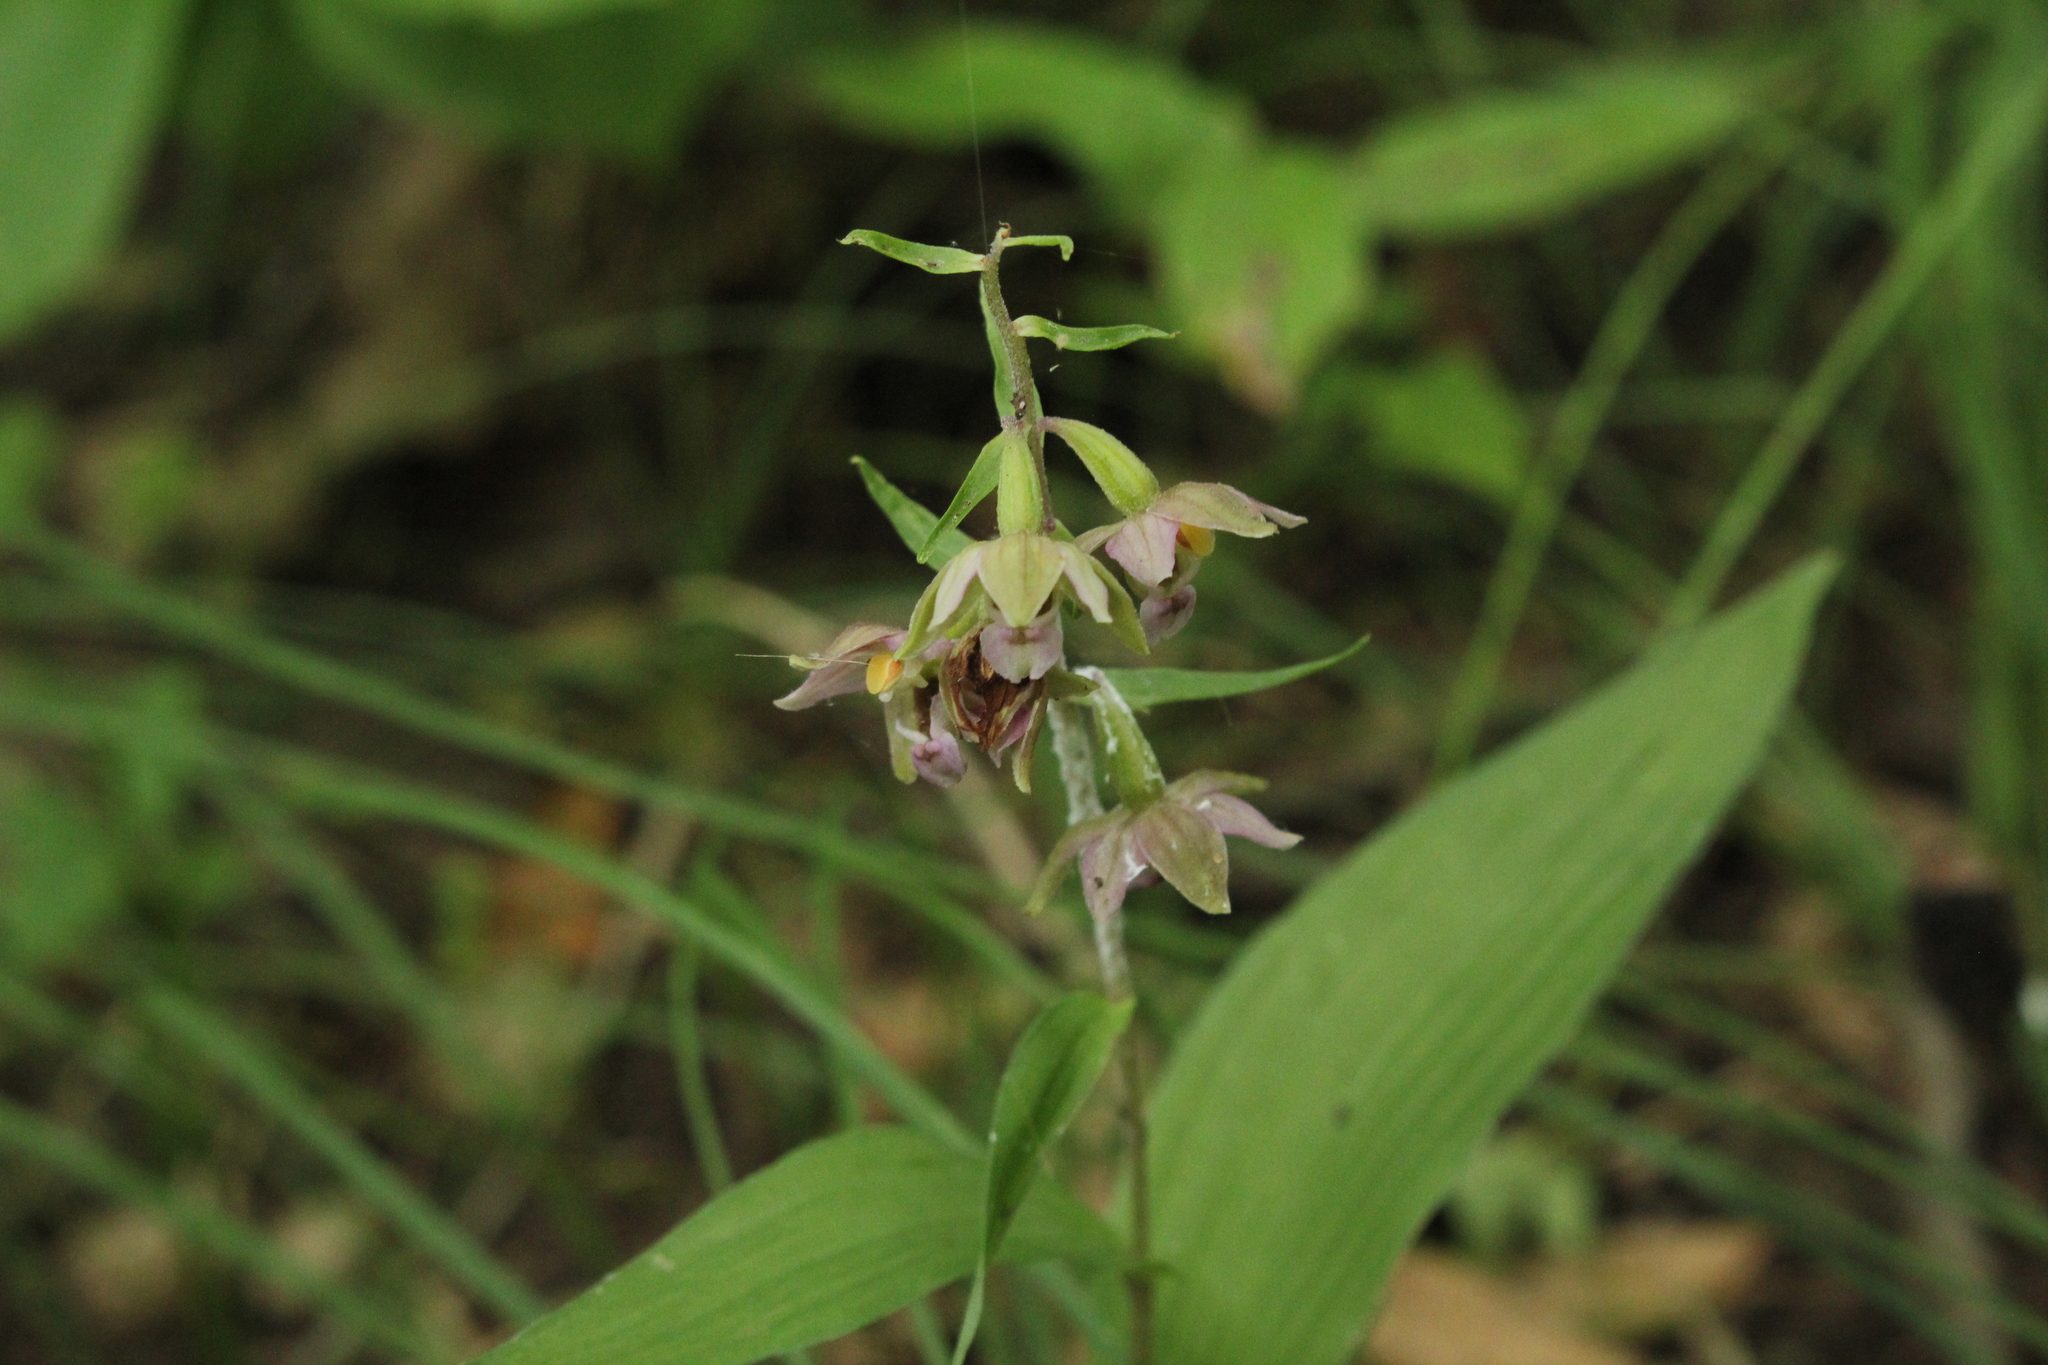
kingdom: Plantae
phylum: Tracheophyta
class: Liliopsida
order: Asparagales
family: Orchidaceae
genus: Epipactis
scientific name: Epipactis helleborine
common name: Broad-leaved helleborine
